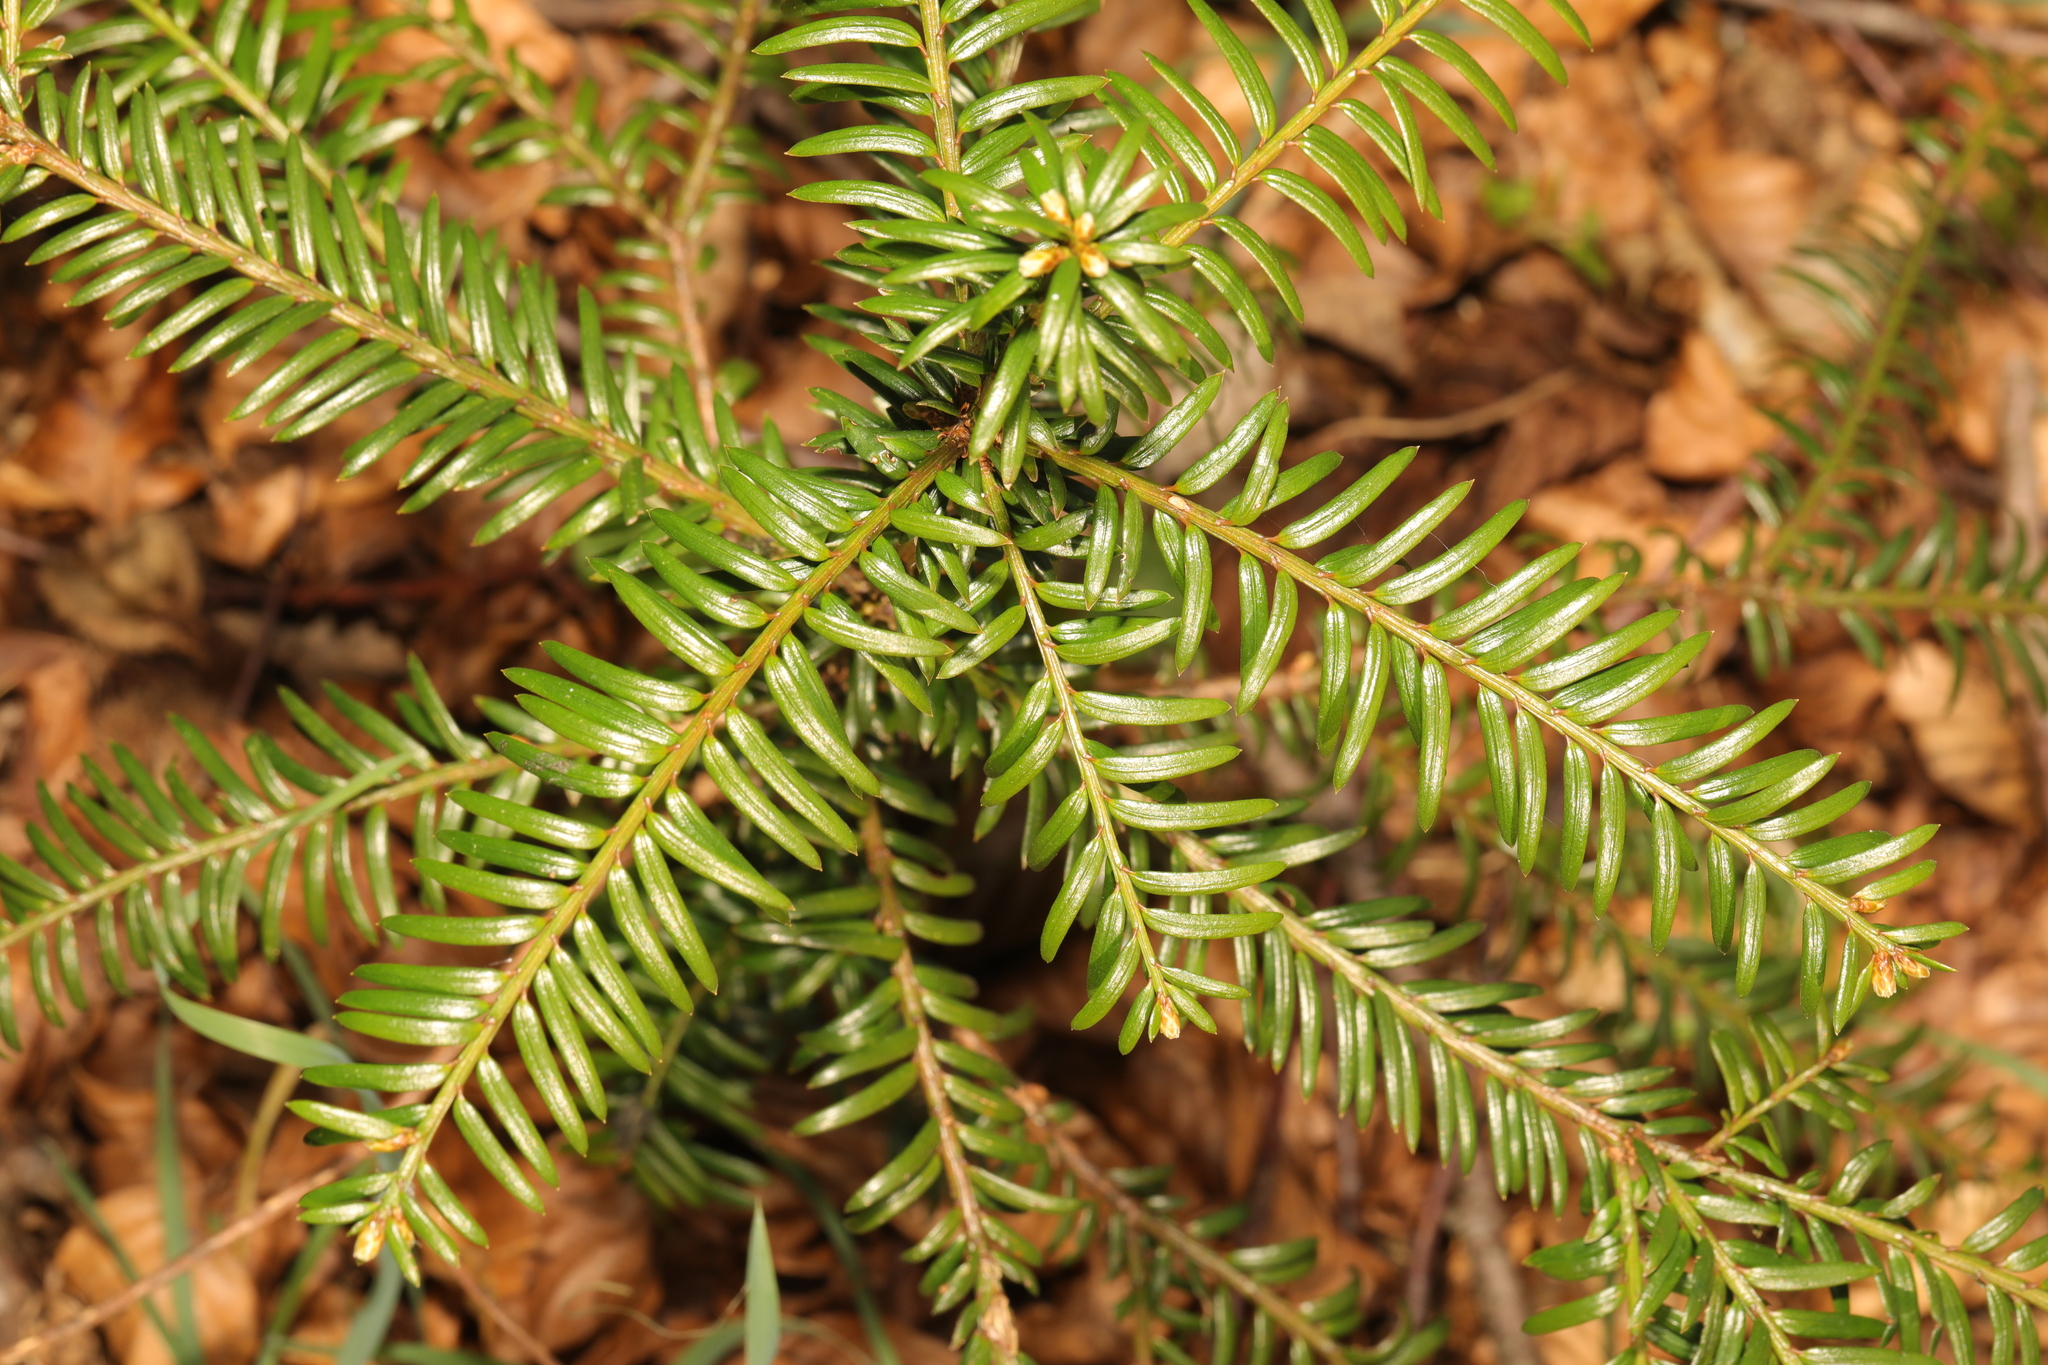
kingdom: Plantae
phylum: Tracheophyta
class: Pinopsida
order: Pinales
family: Taxaceae
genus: Taxus
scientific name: Taxus baccata
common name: Yew
